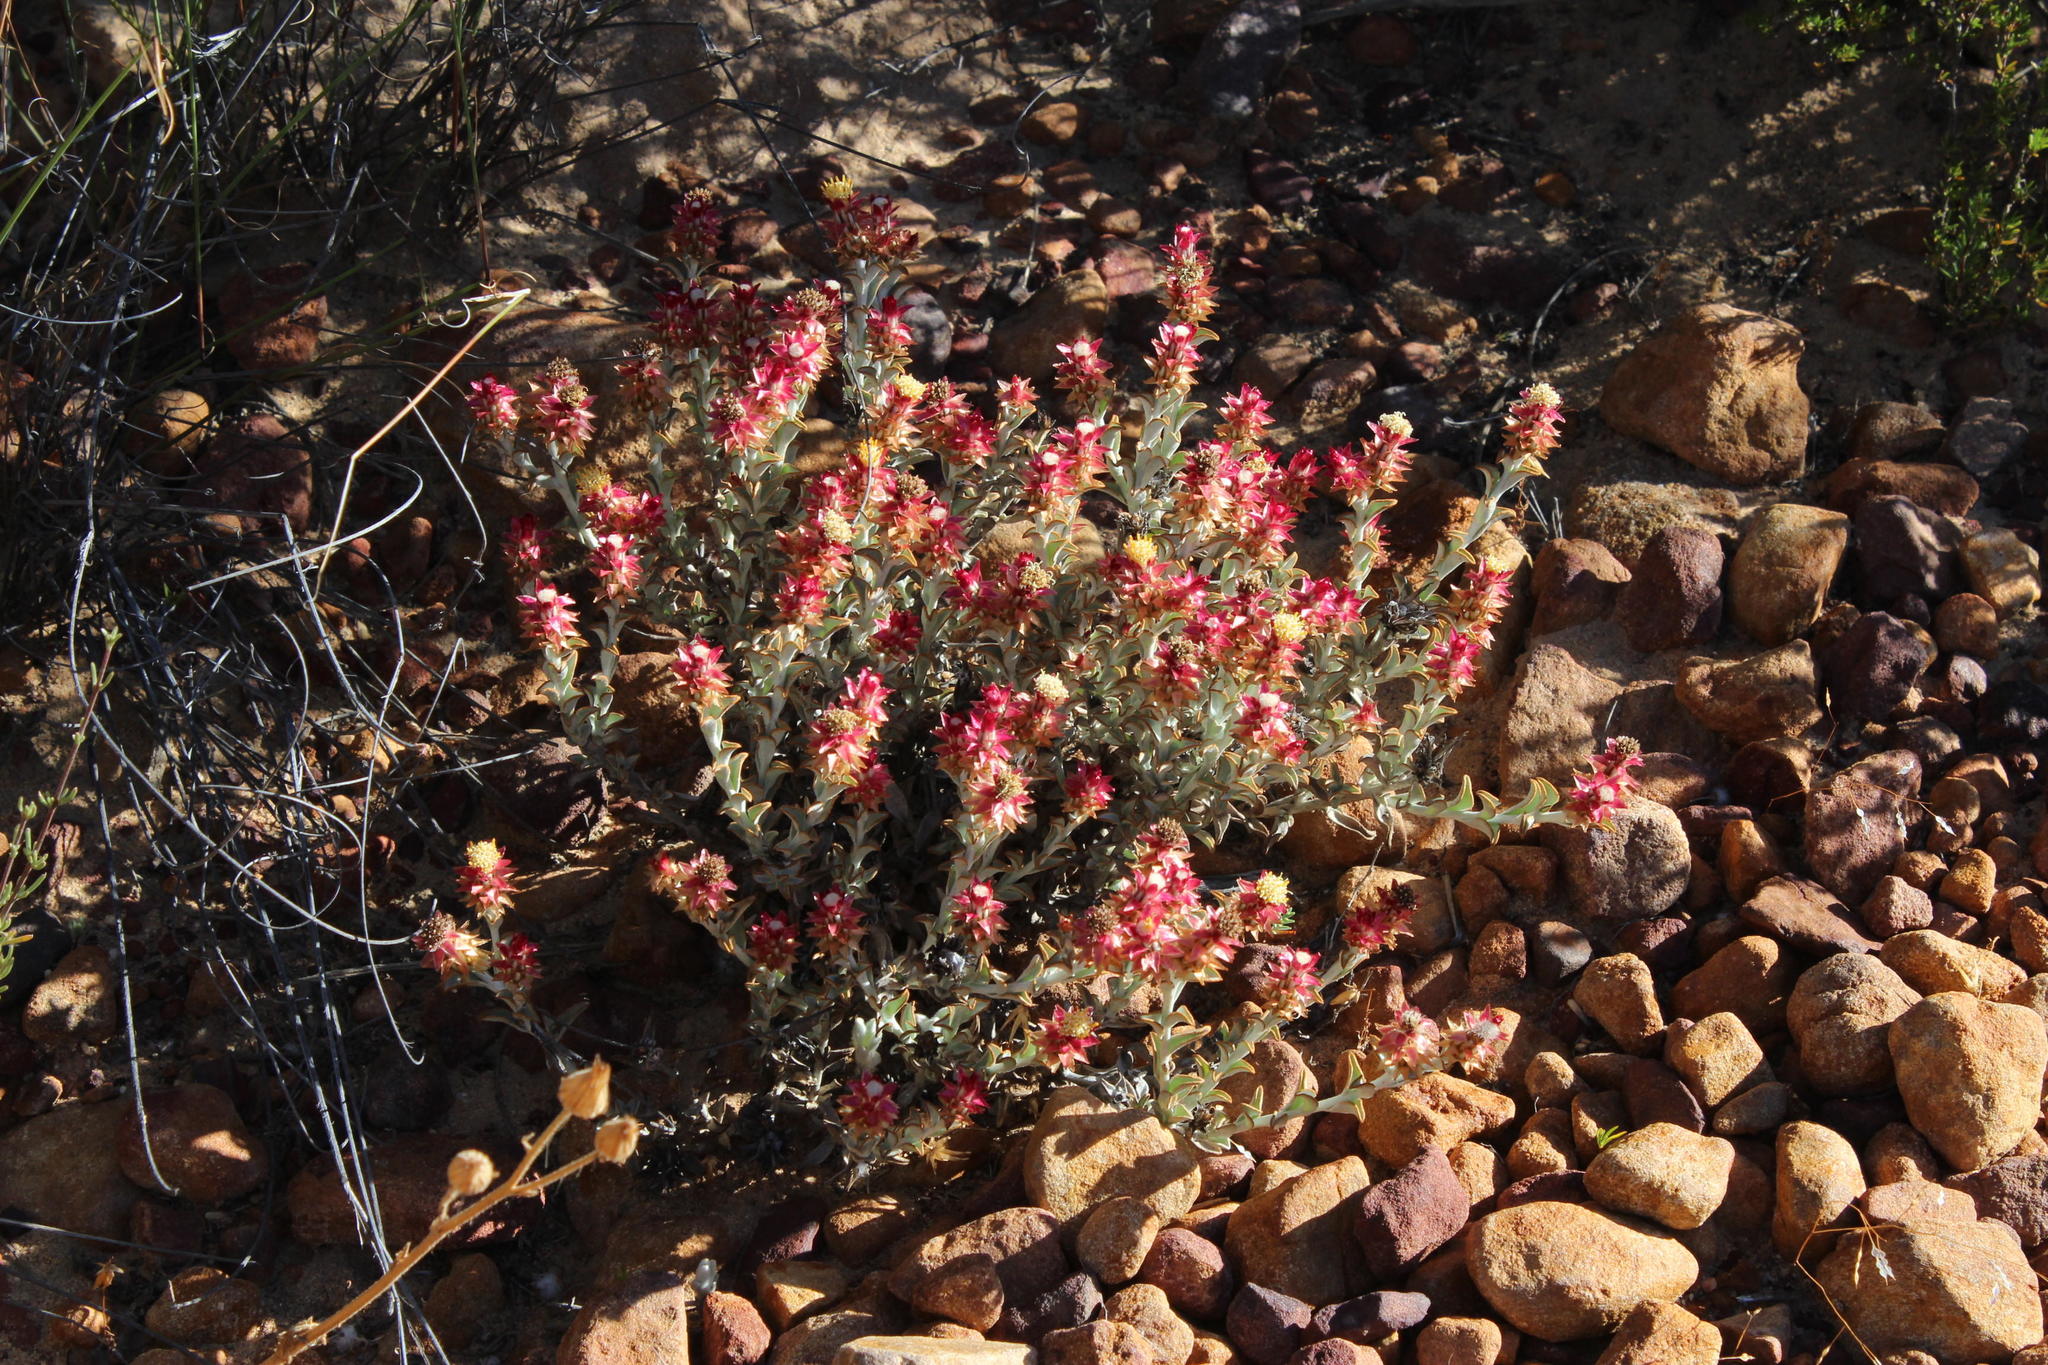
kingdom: Plantae
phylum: Tracheophyta
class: Magnoliopsida
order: Asterales
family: Asteraceae
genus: Syncarpha
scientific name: Syncarpha dregeana
